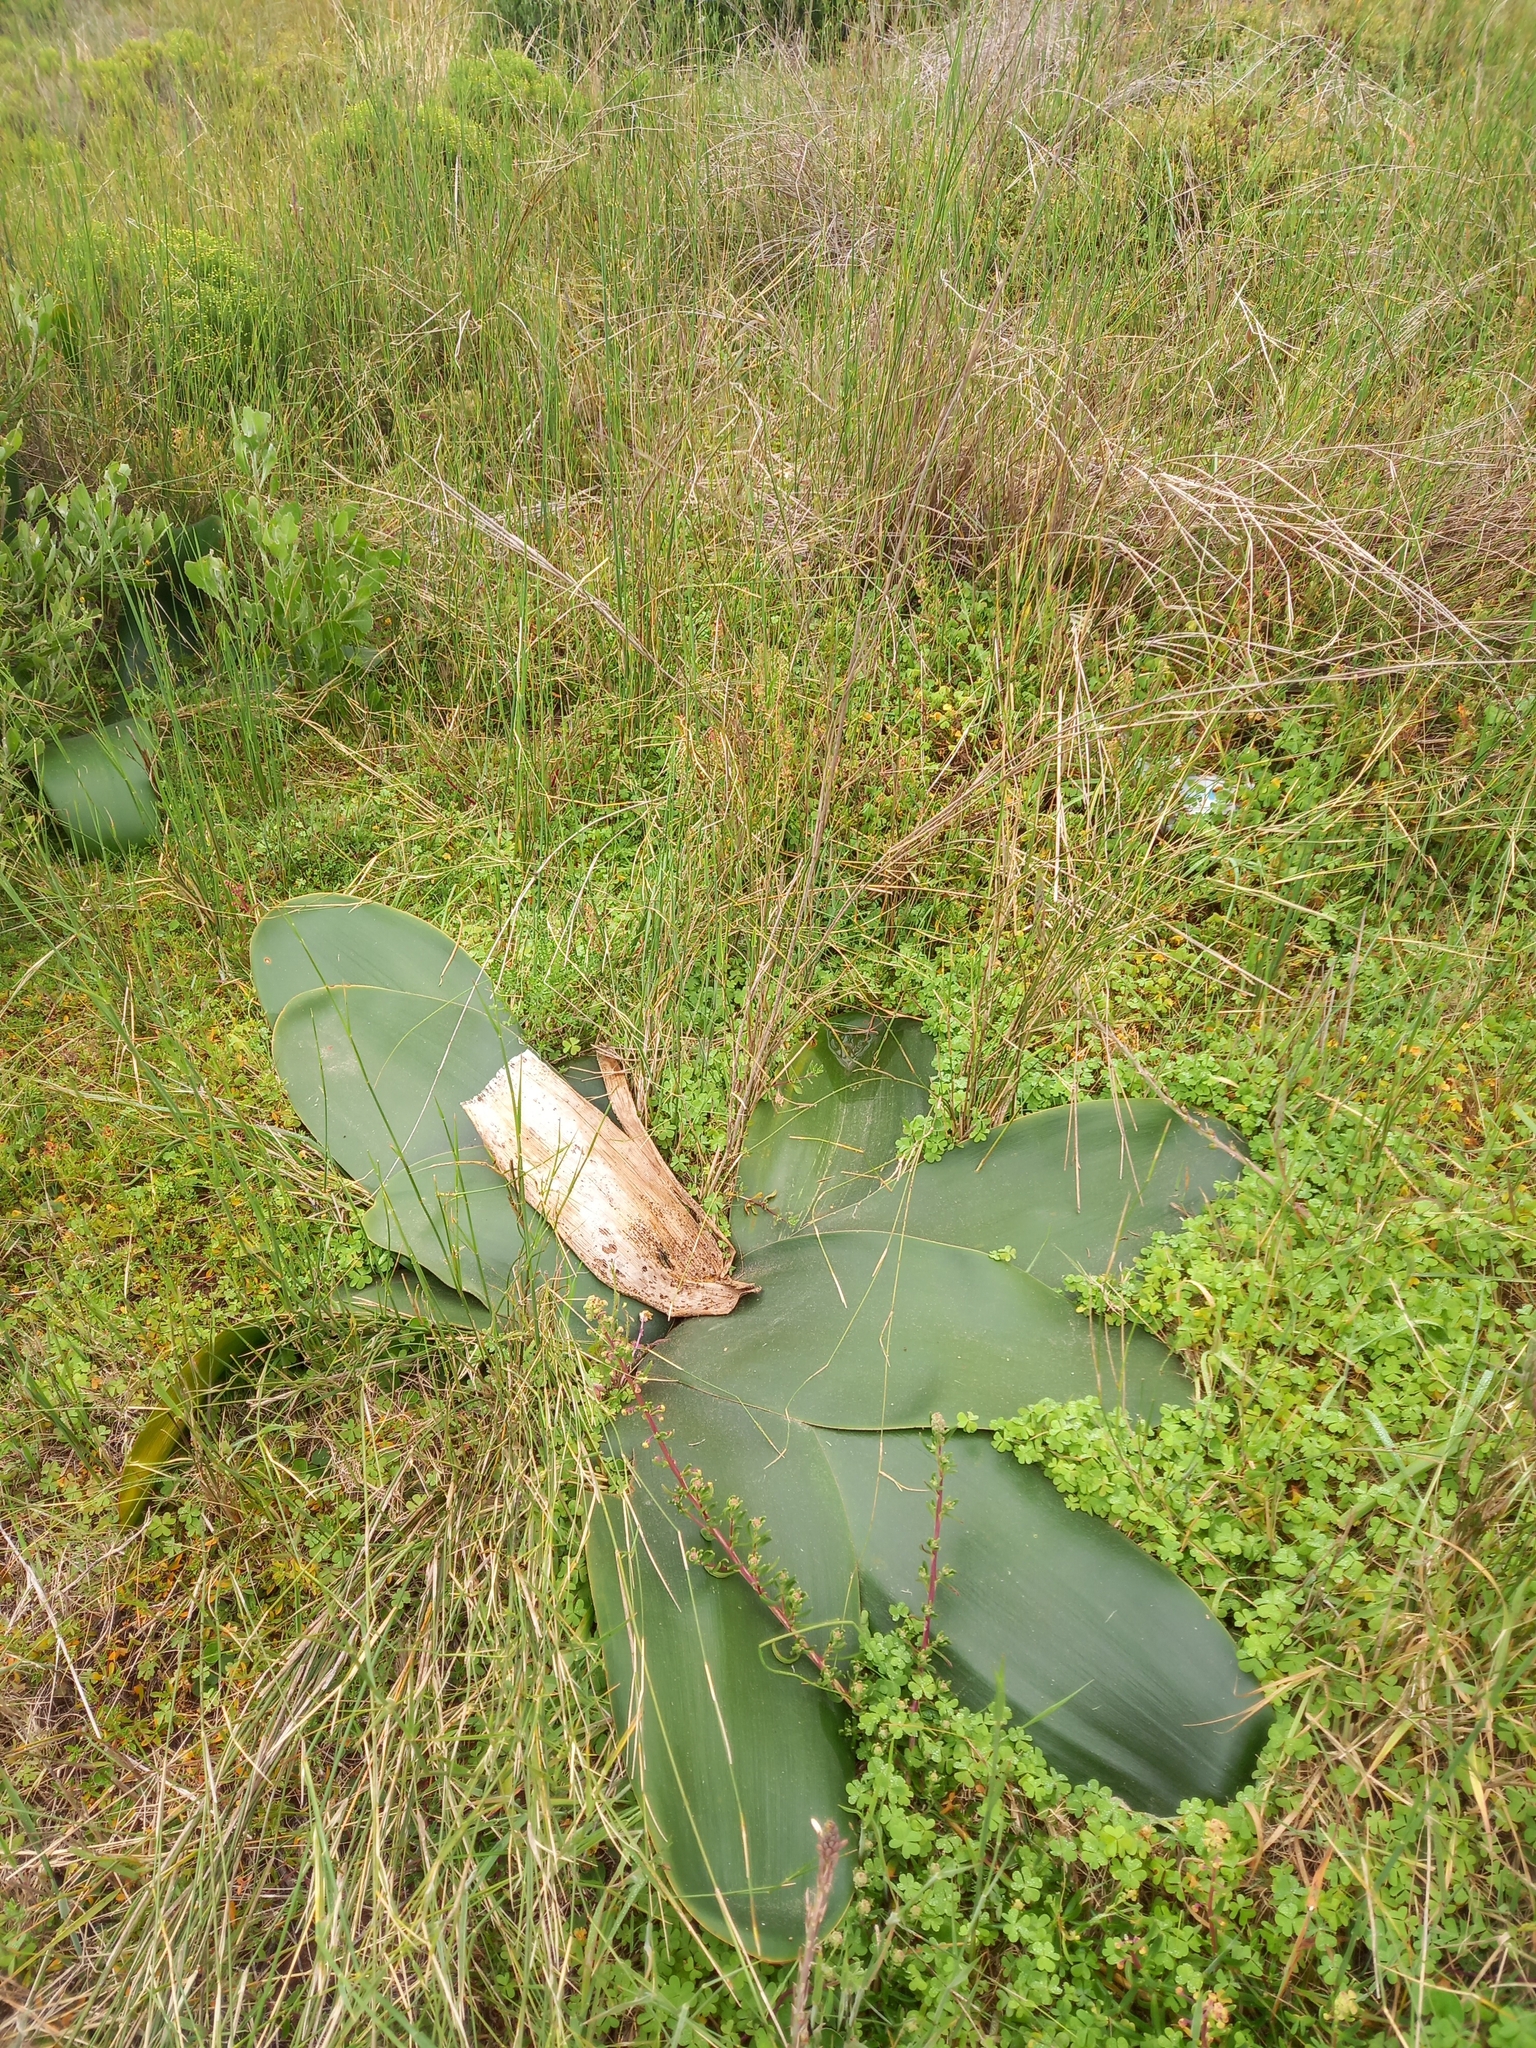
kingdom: Plantae
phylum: Tracheophyta
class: Liliopsida
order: Asparagales
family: Amaryllidaceae
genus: Brunsvigia
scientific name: Brunsvigia orientalis
